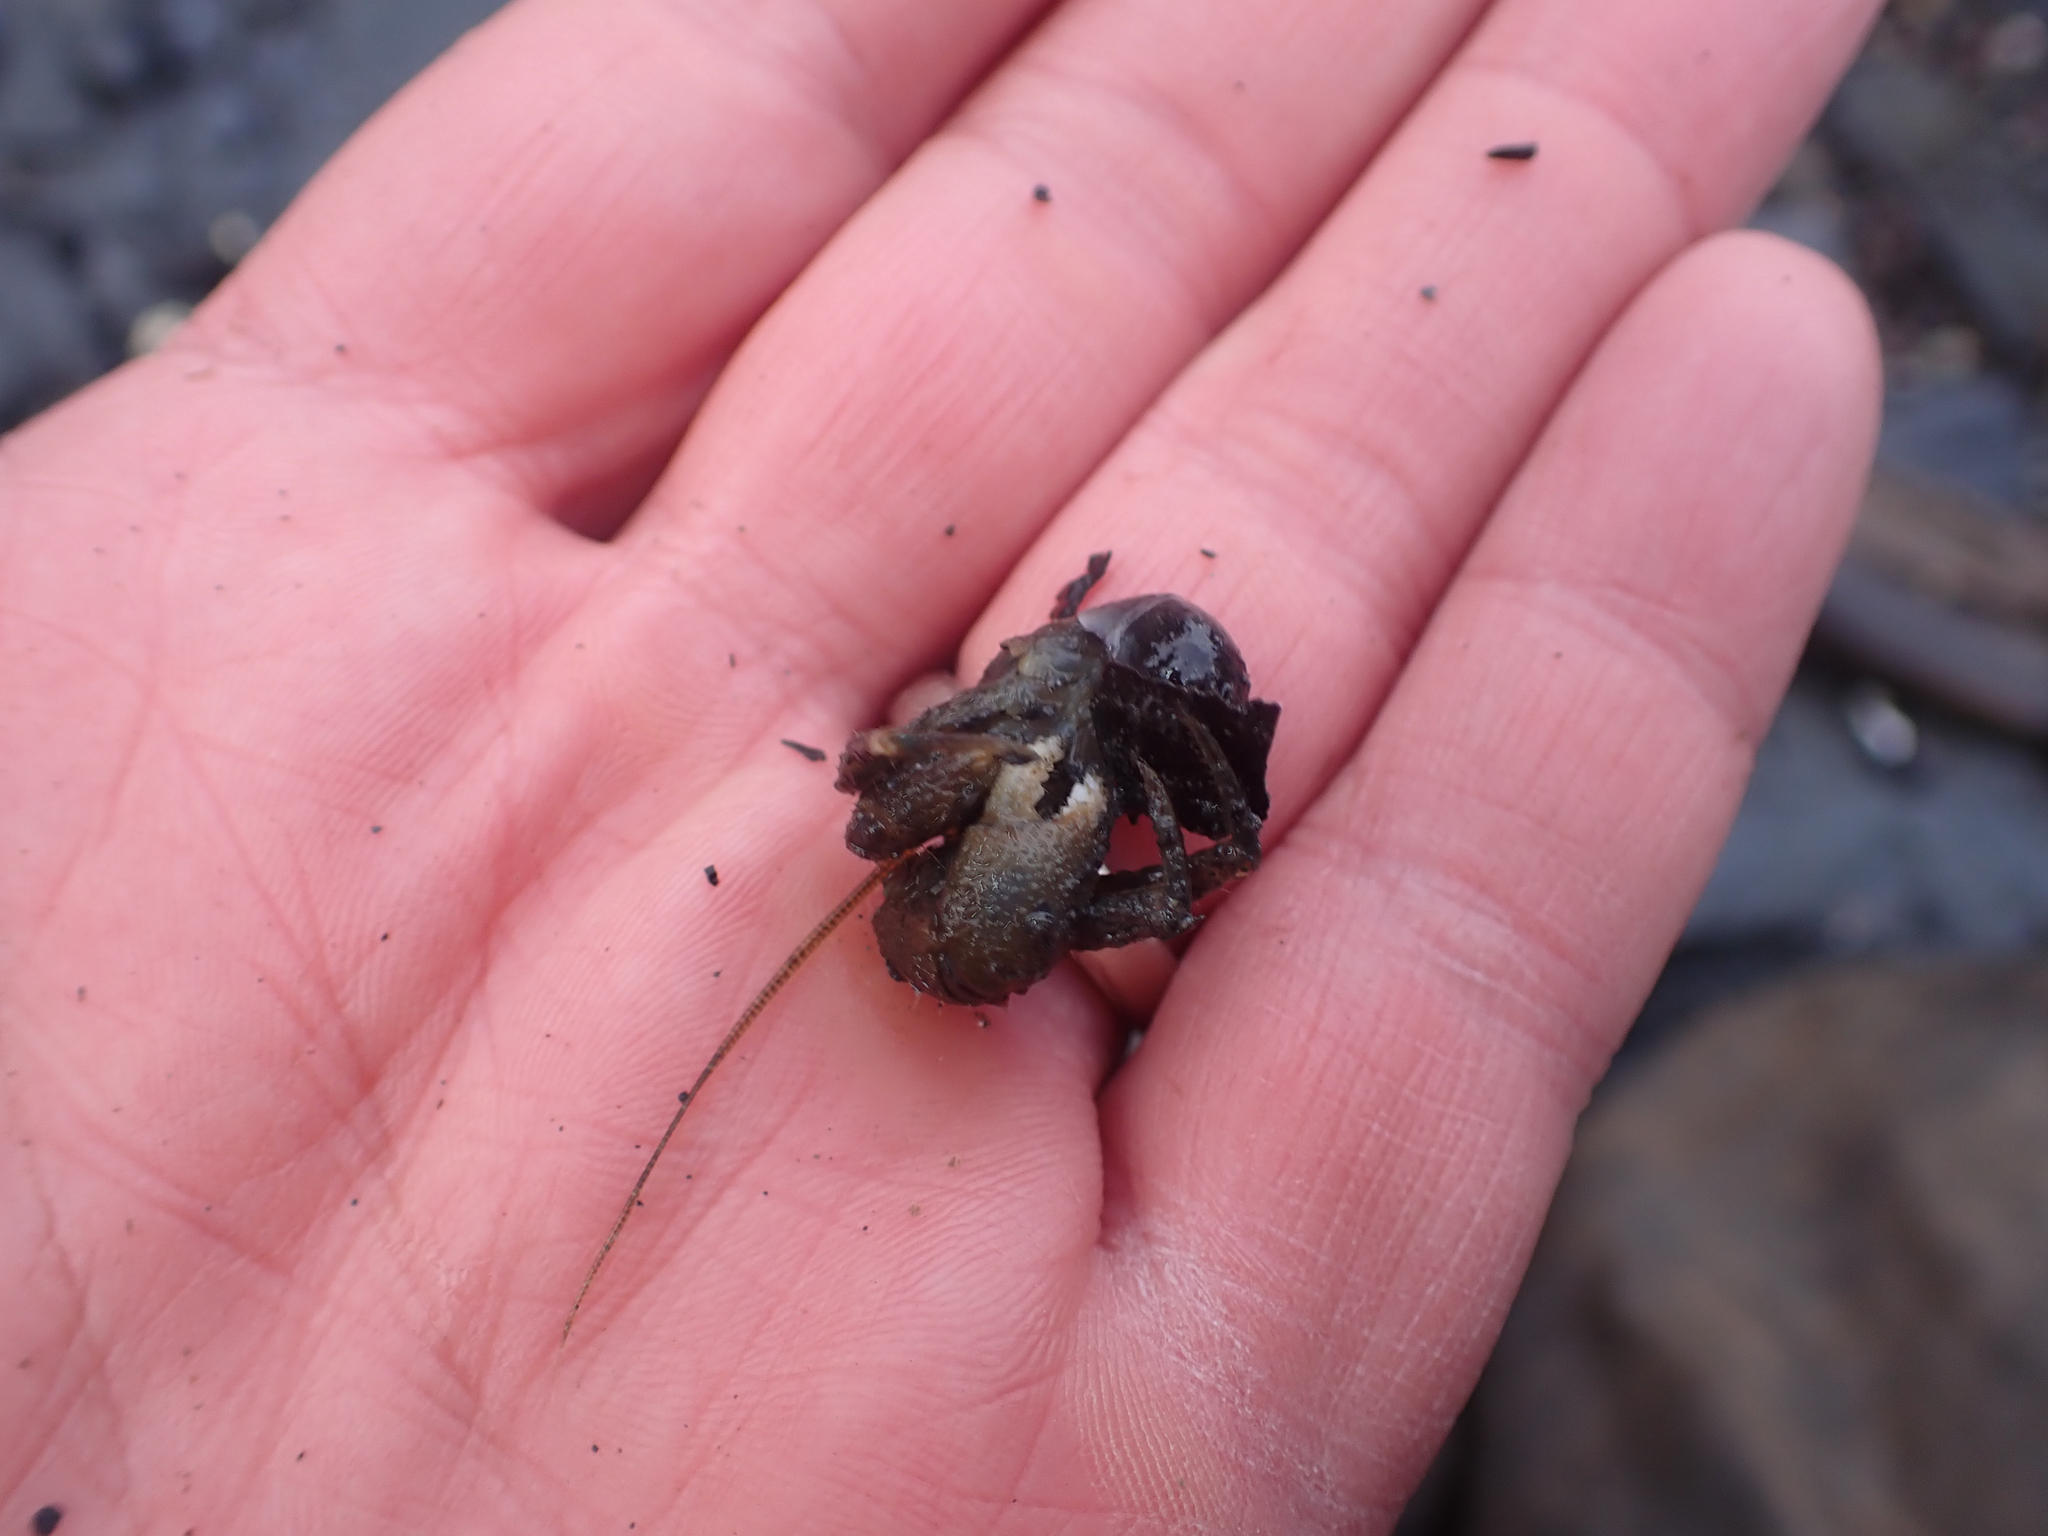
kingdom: Animalia
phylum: Arthropoda
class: Malacostraca
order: Decapoda
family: Paguridae
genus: Pagurus
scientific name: Pagurus hirsutiusculus
